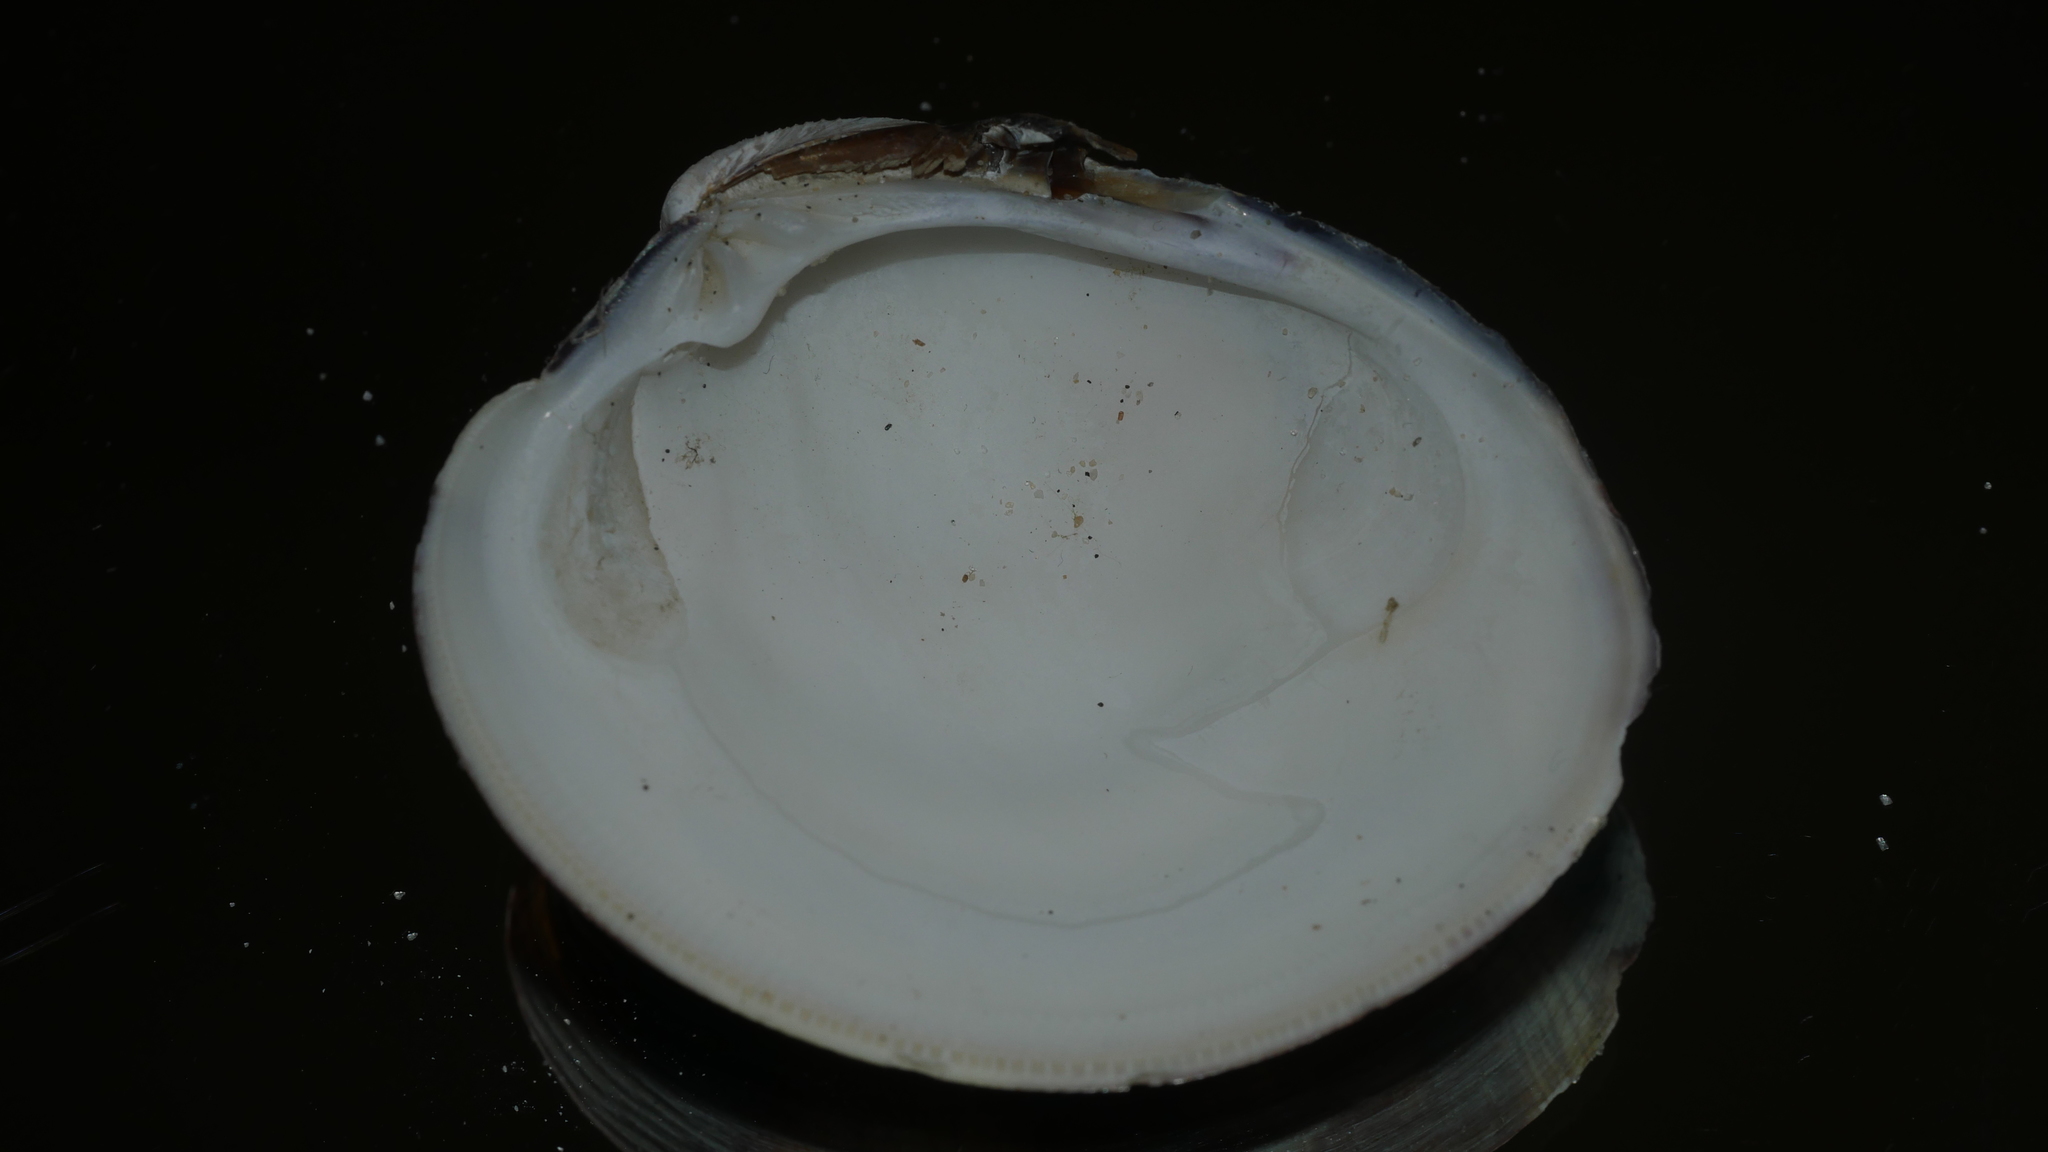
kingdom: Animalia
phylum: Mollusca
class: Bivalvia
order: Venerida
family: Veneridae
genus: Mercenaria
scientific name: Mercenaria mercenaria
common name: American hard-shelled clam
